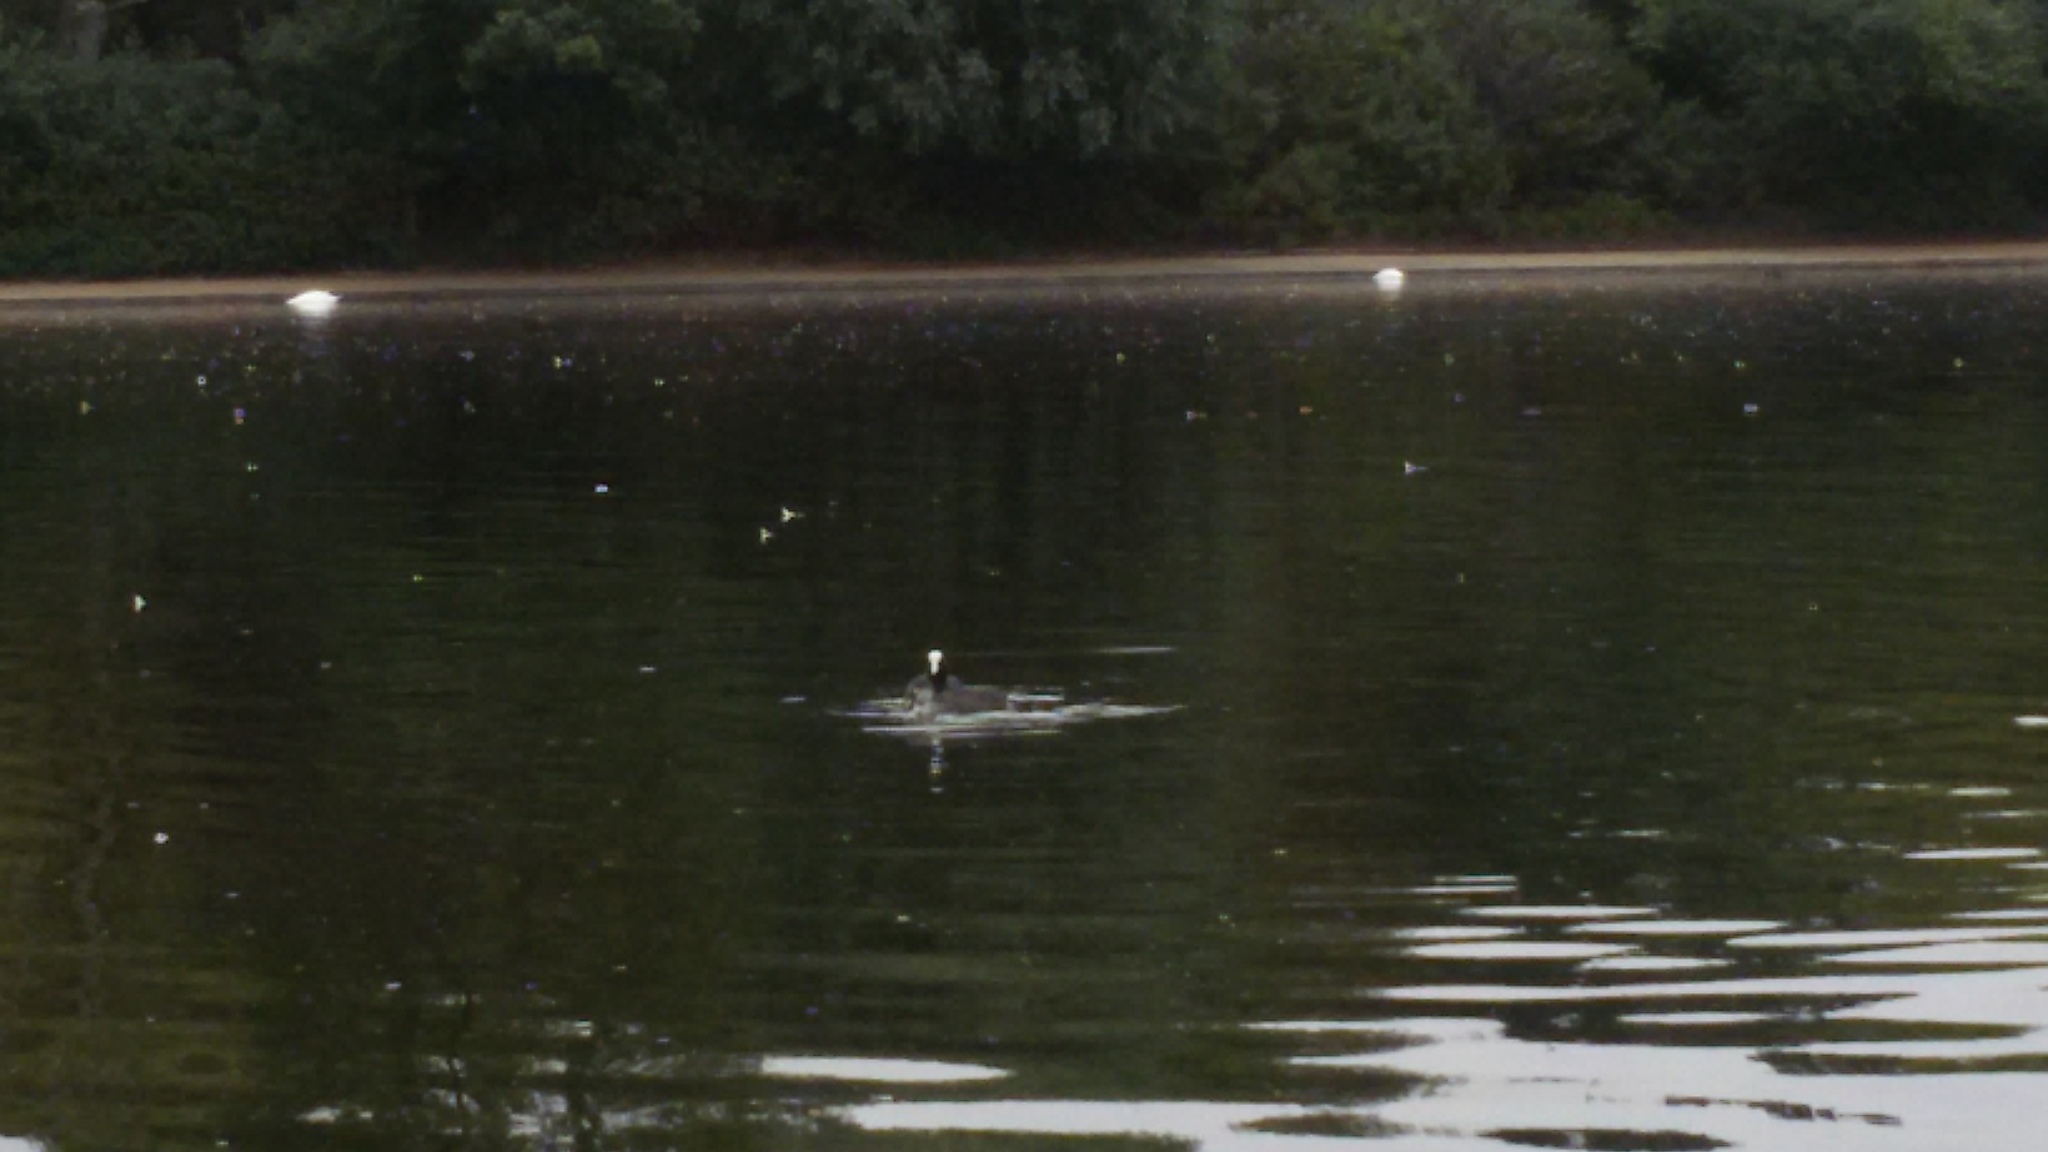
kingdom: Animalia
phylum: Chordata
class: Aves
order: Gruiformes
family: Rallidae
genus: Fulica
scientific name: Fulica atra
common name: Eurasian coot
